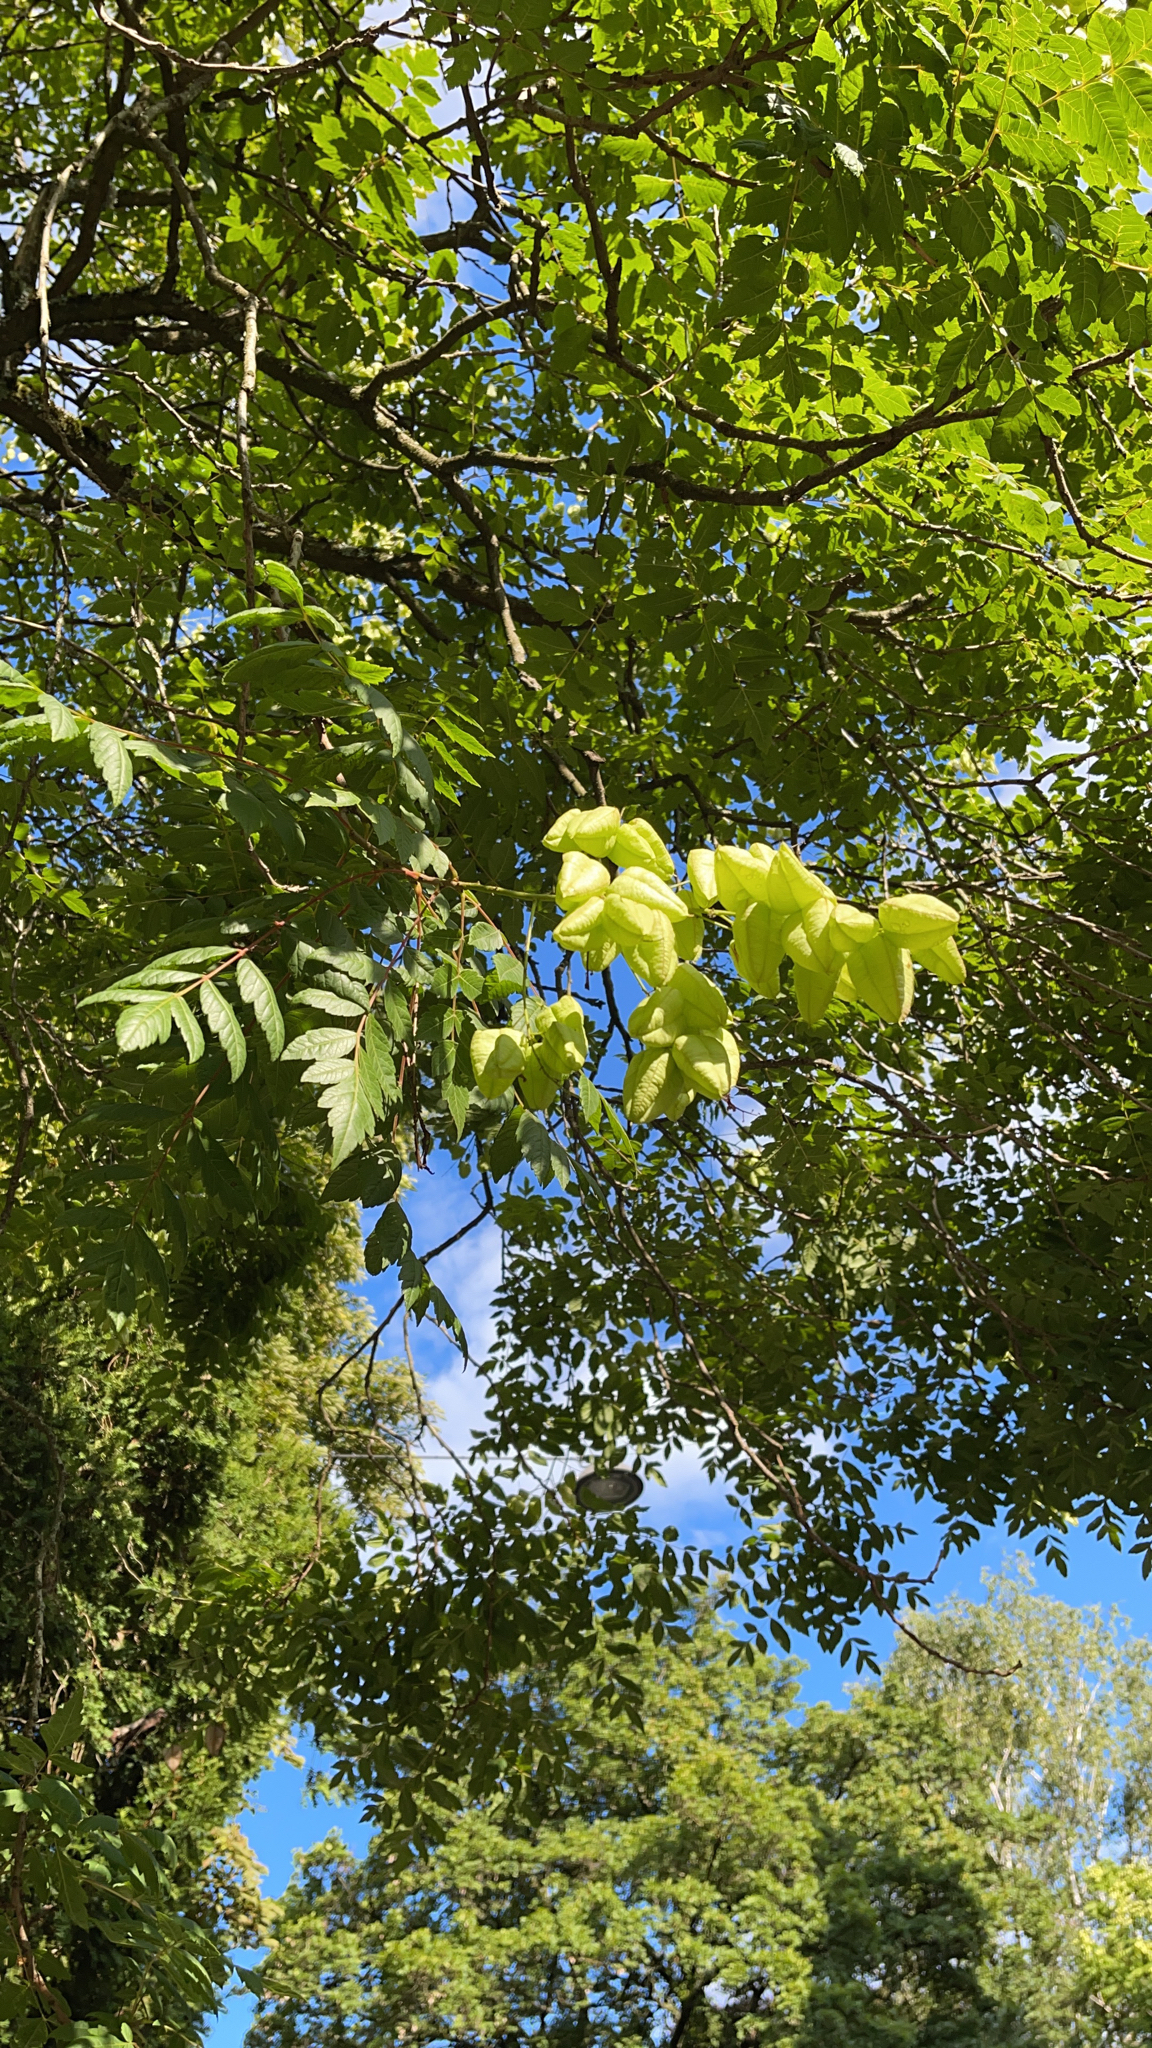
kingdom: Plantae
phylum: Tracheophyta
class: Magnoliopsida
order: Sapindales
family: Sapindaceae
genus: Koelreuteria
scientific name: Koelreuteria paniculata
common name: Pride-of-india
